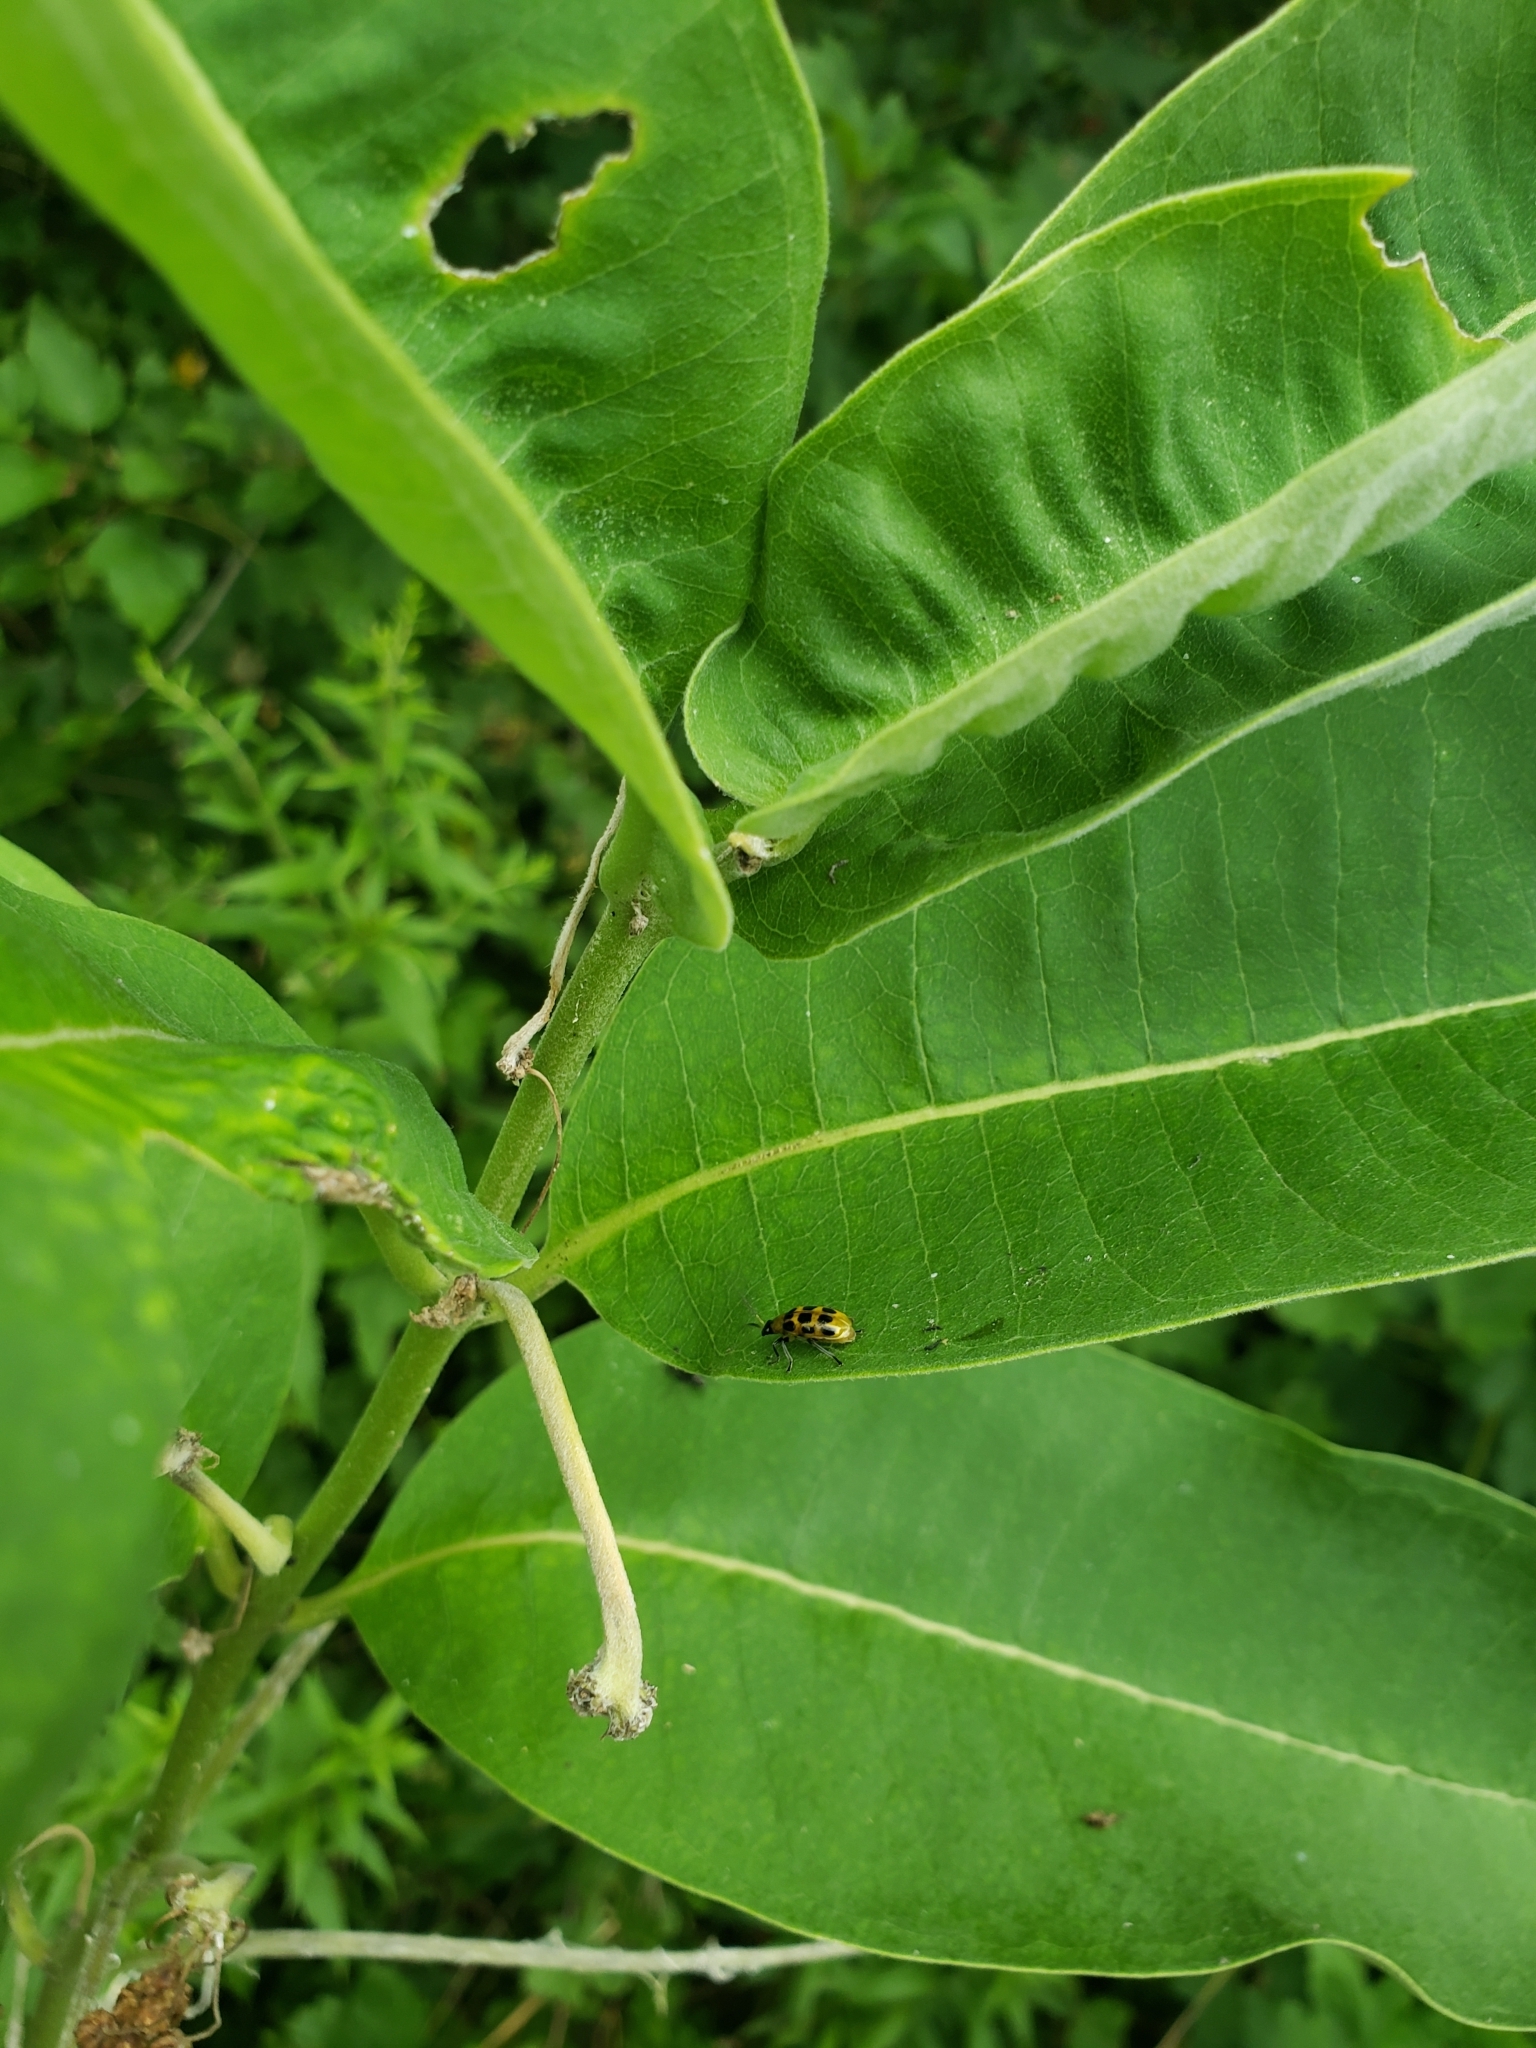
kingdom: Animalia
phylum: Arthropoda
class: Insecta
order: Coleoptera
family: Chrysomelidae
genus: Diabrotica
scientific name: Diabrotica undecimpunctata
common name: Spotted cucumber beetle
